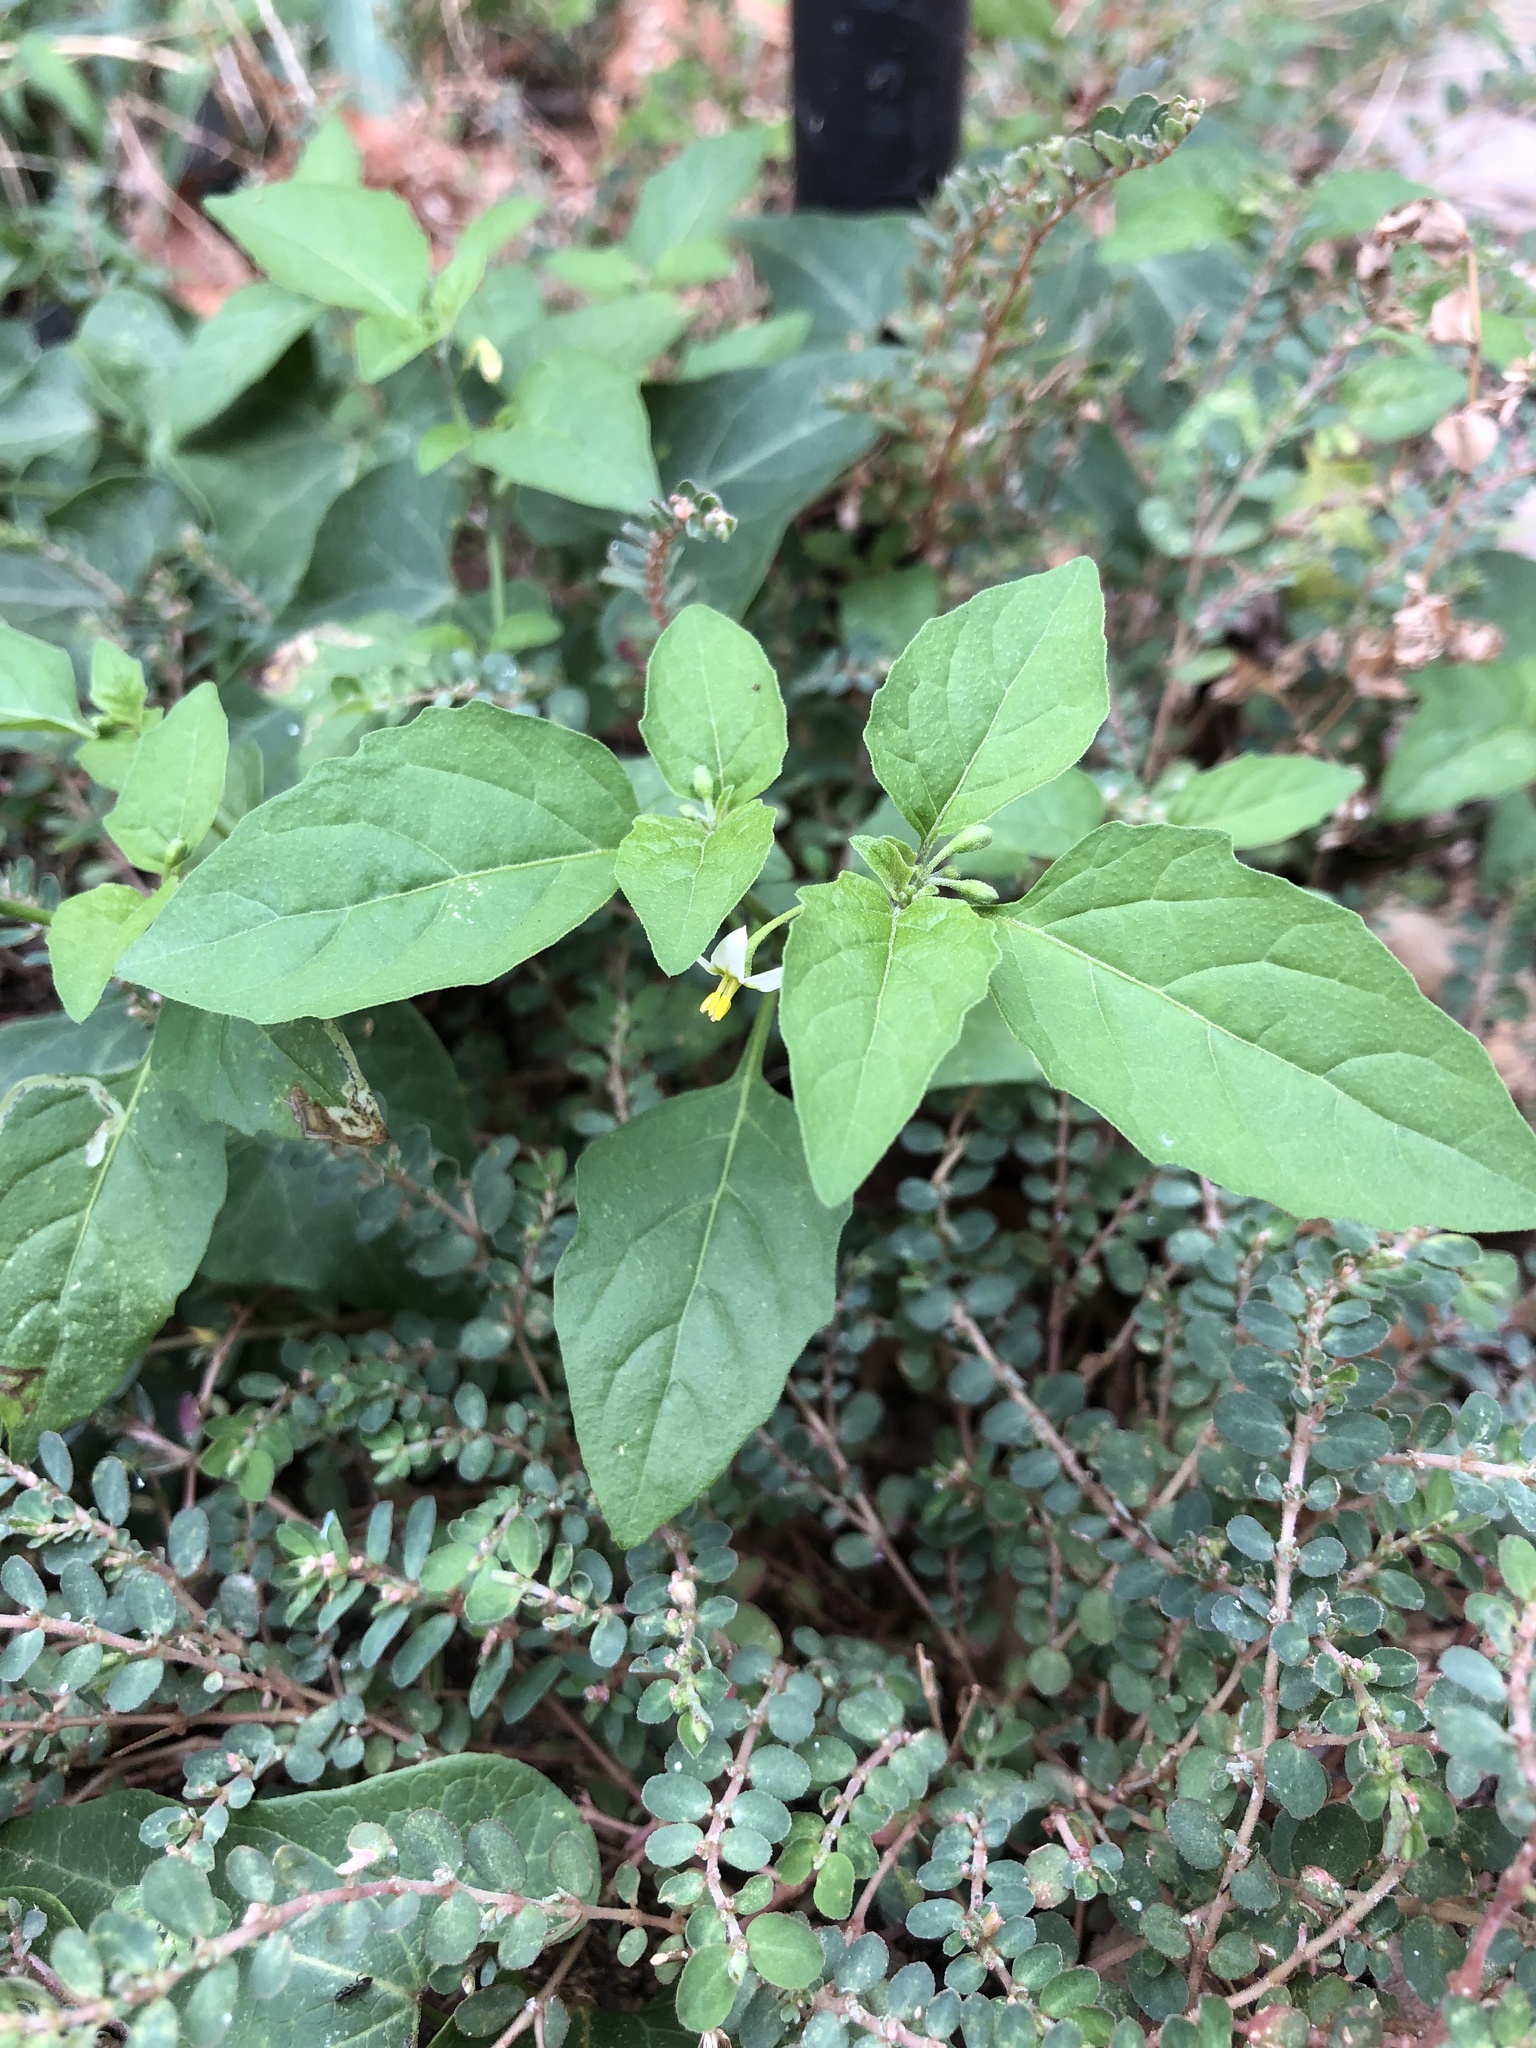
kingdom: Plantae
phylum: Tracheophyta
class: Magnoliopsida
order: Solanales
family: Solanaceae
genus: Solanum
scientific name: Solanum emulans
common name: Eastern black nightshade
